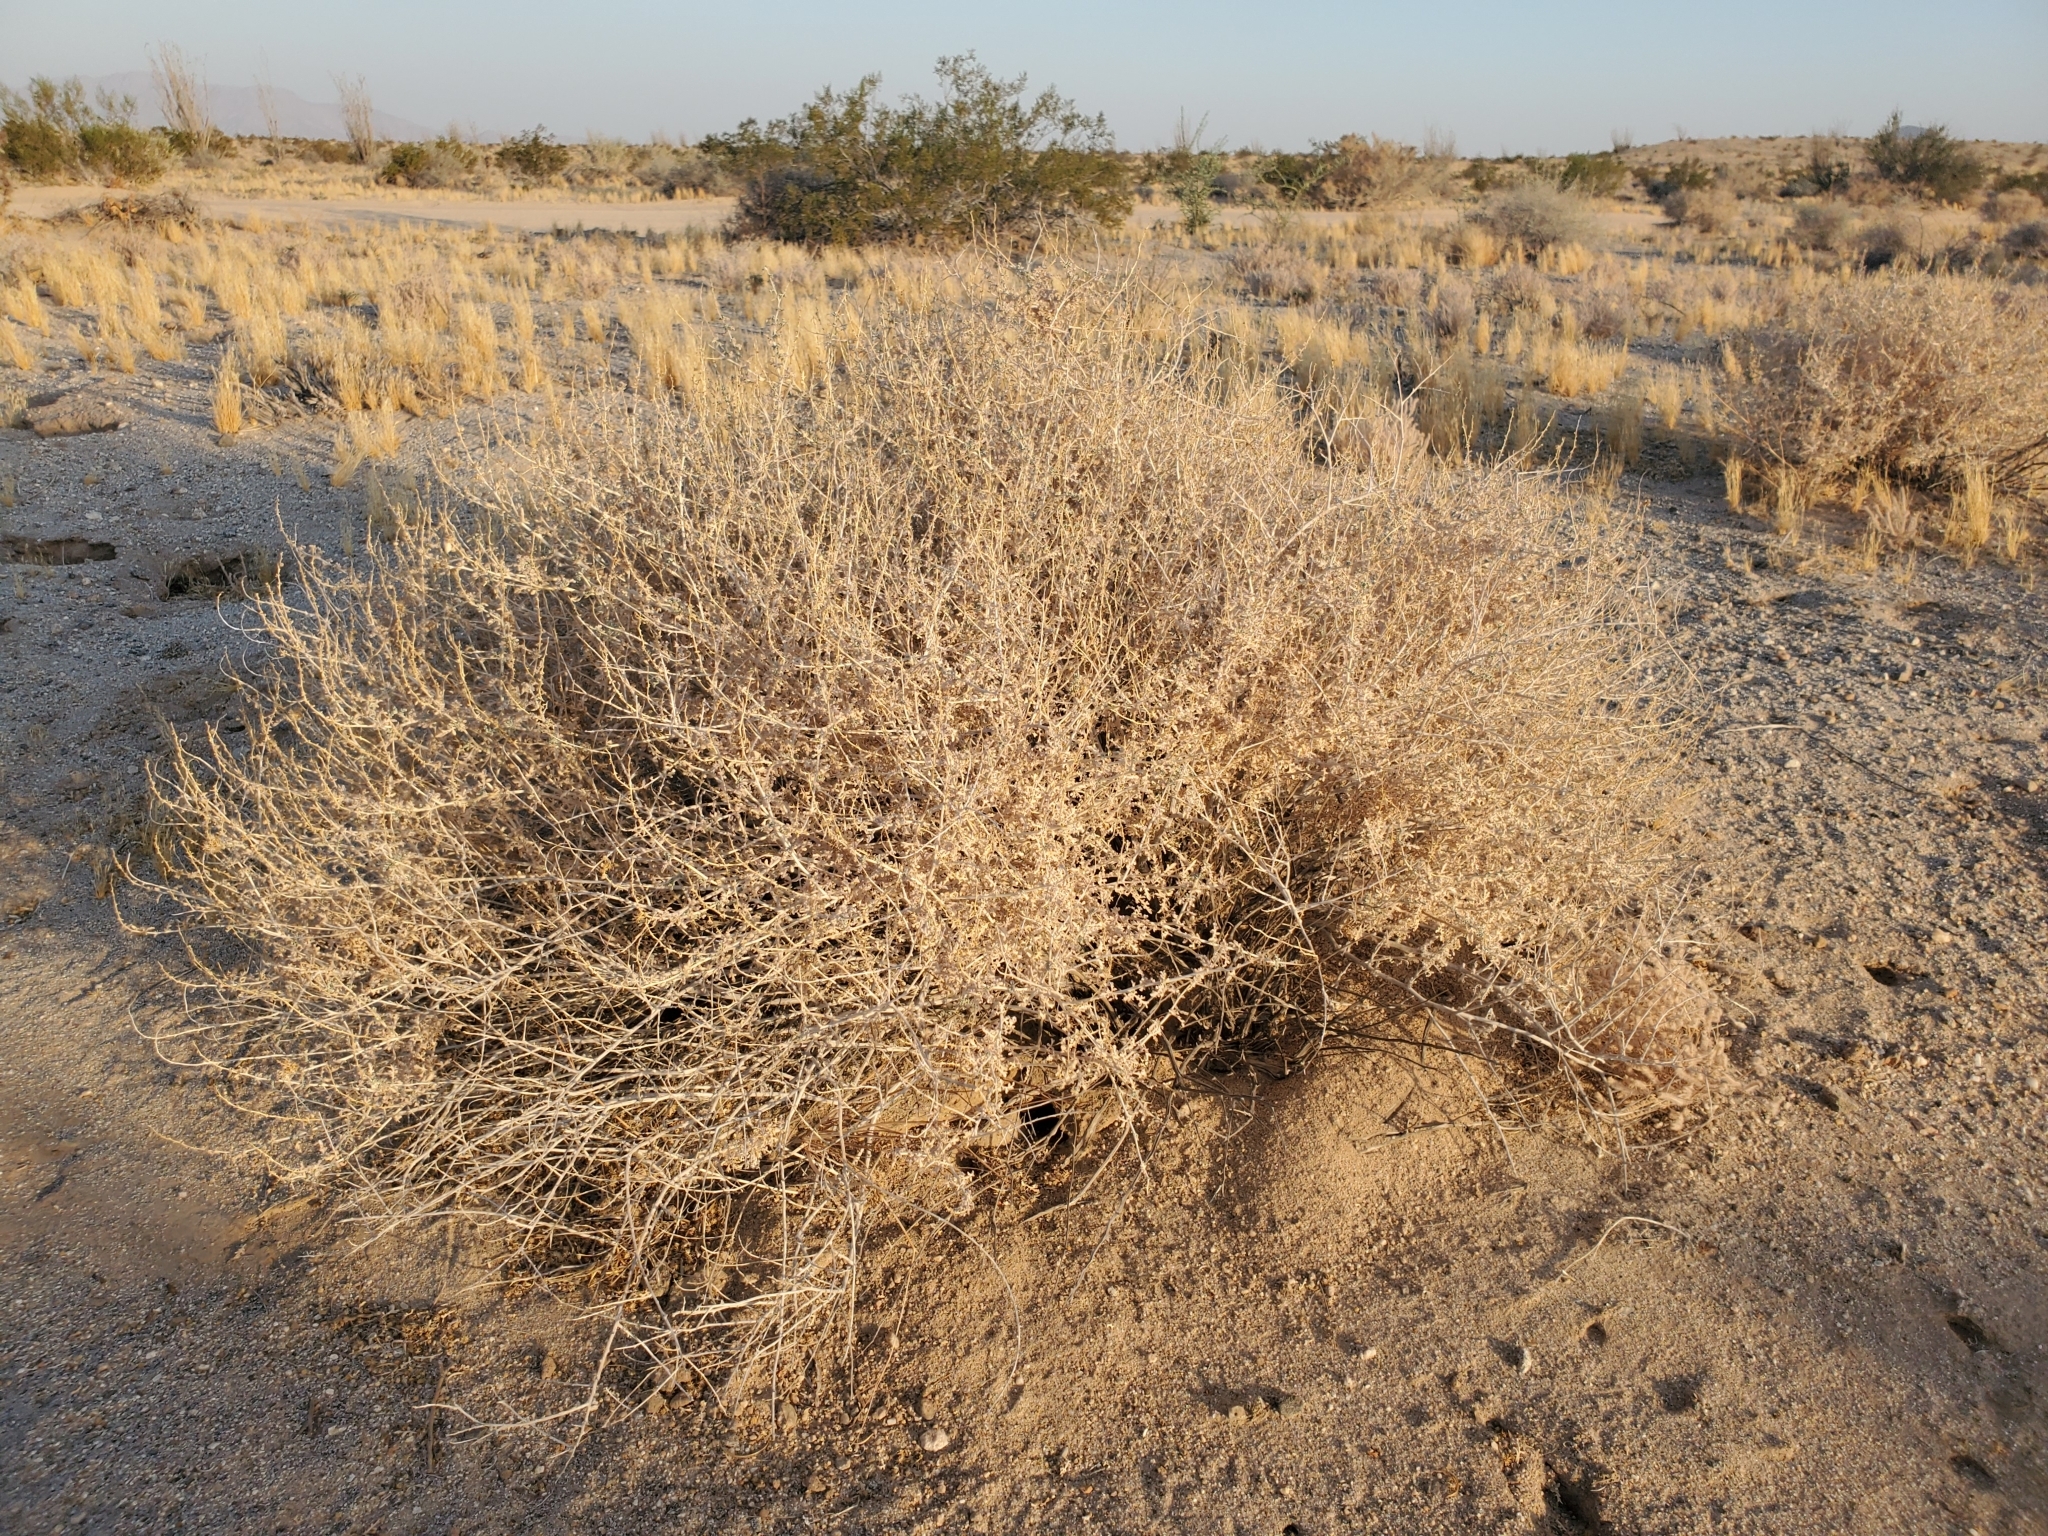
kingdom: Plantae
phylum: Tracheophyta
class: Magnoliopsida
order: Asterales
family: Asteraceae
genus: Ambrosia
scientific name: Ambrosia dumosa
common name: Bur-sage
